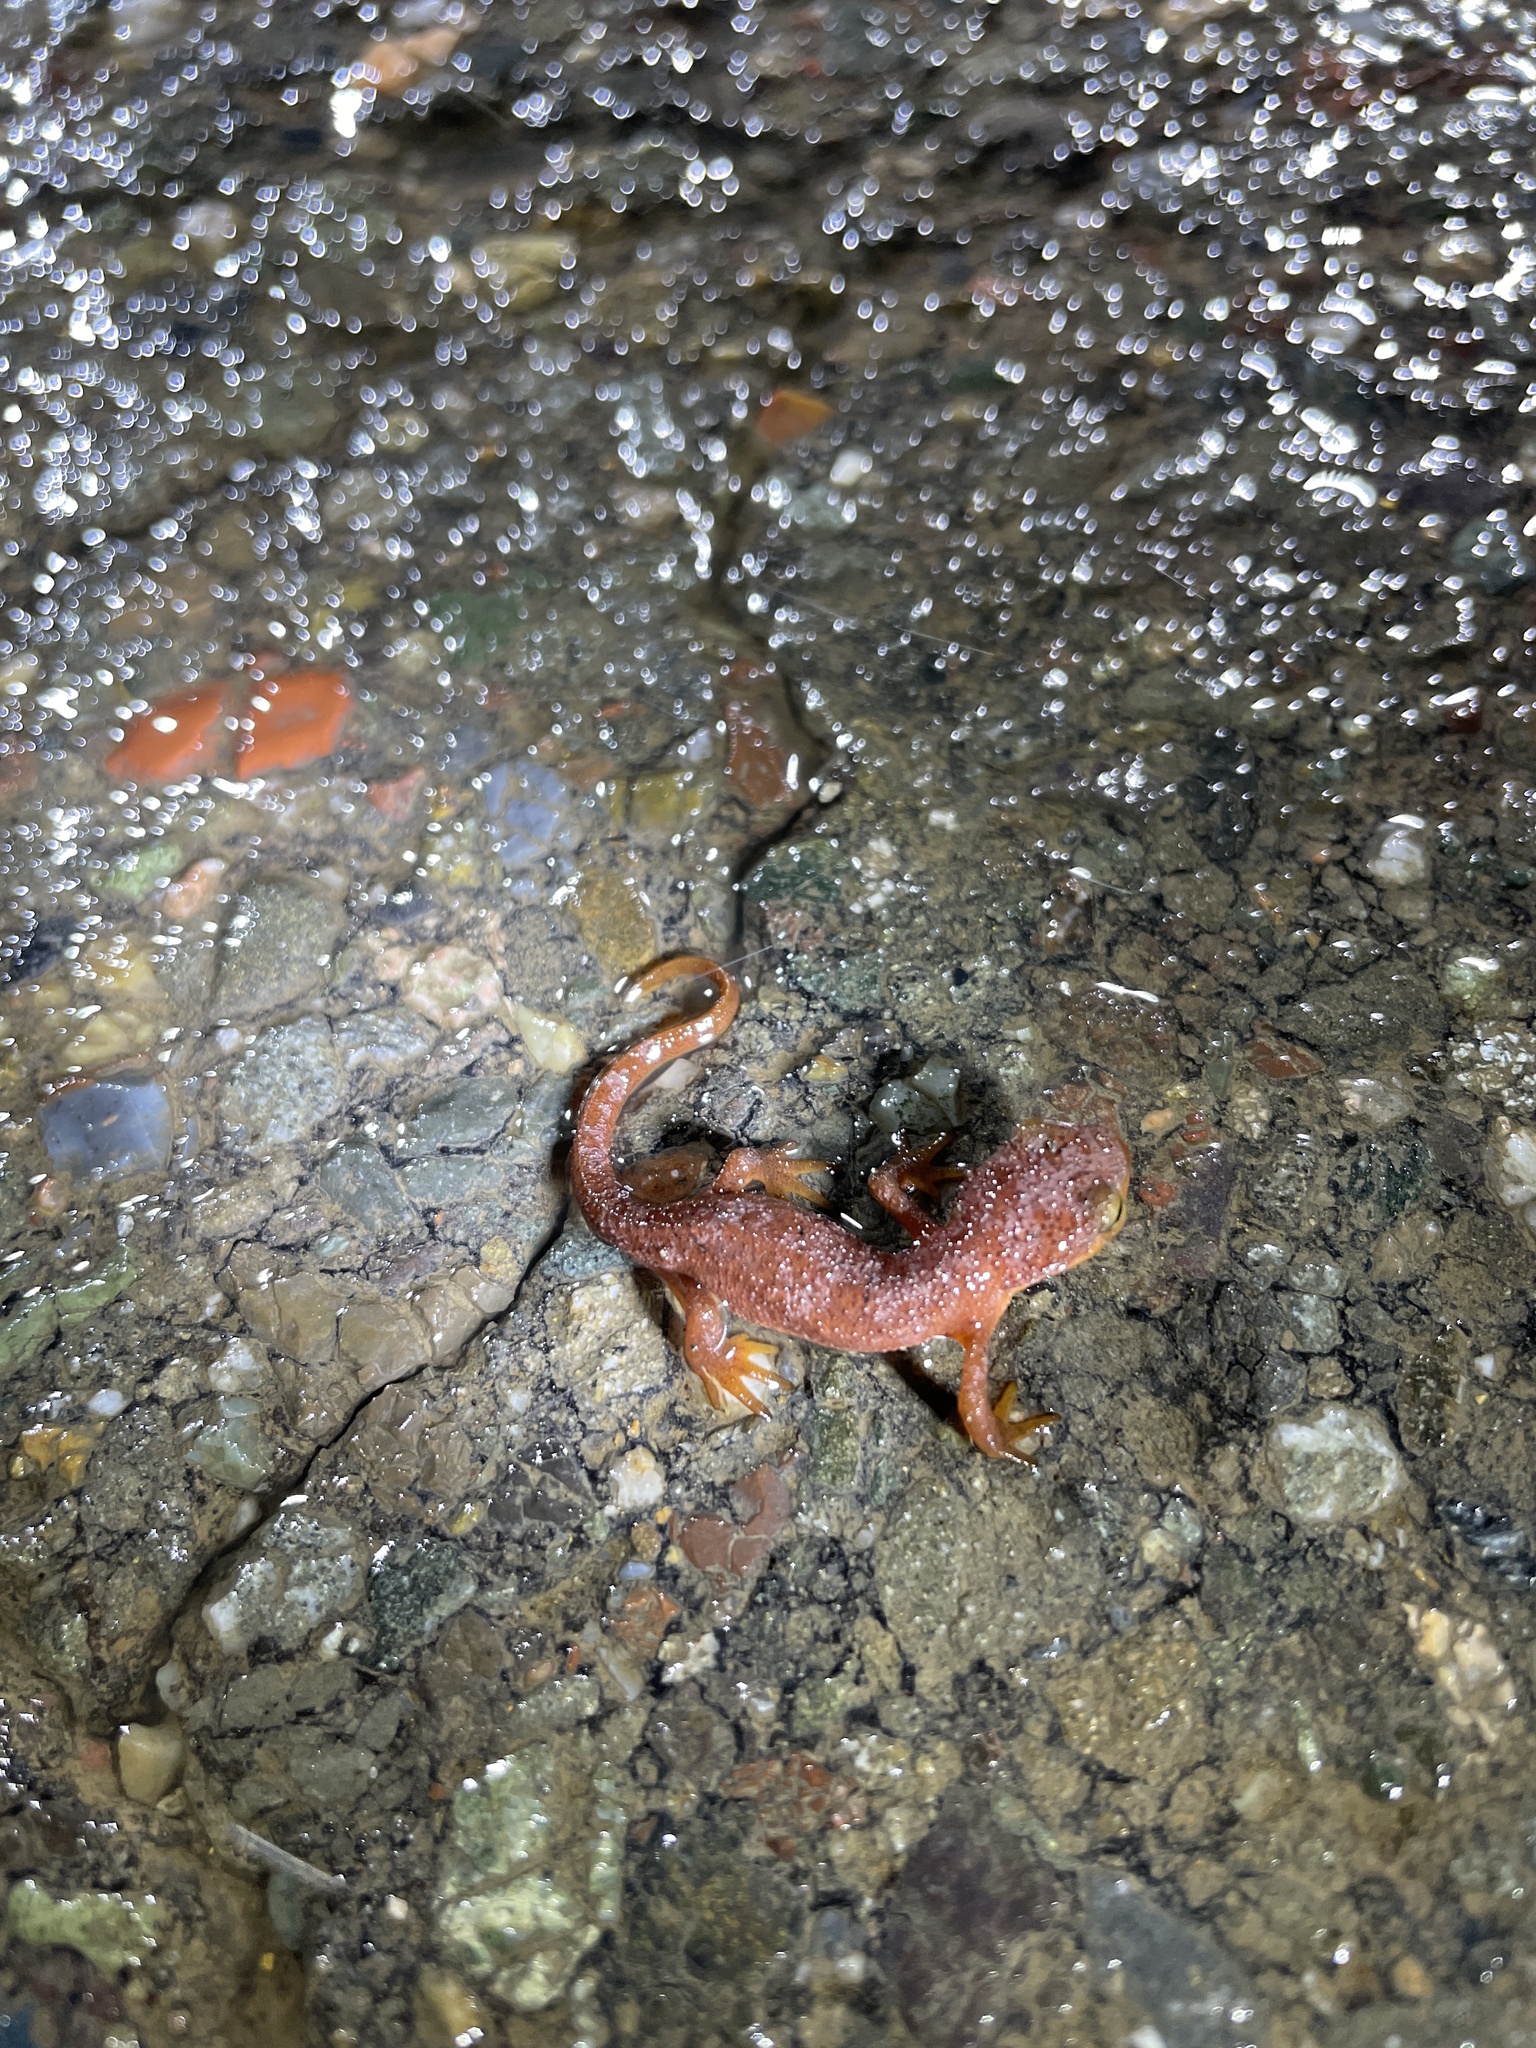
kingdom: Animalia
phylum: Chordata
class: Amphibia
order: Caudata
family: Salamandridae
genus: Taricha
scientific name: Taricha torosa
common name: California newt
